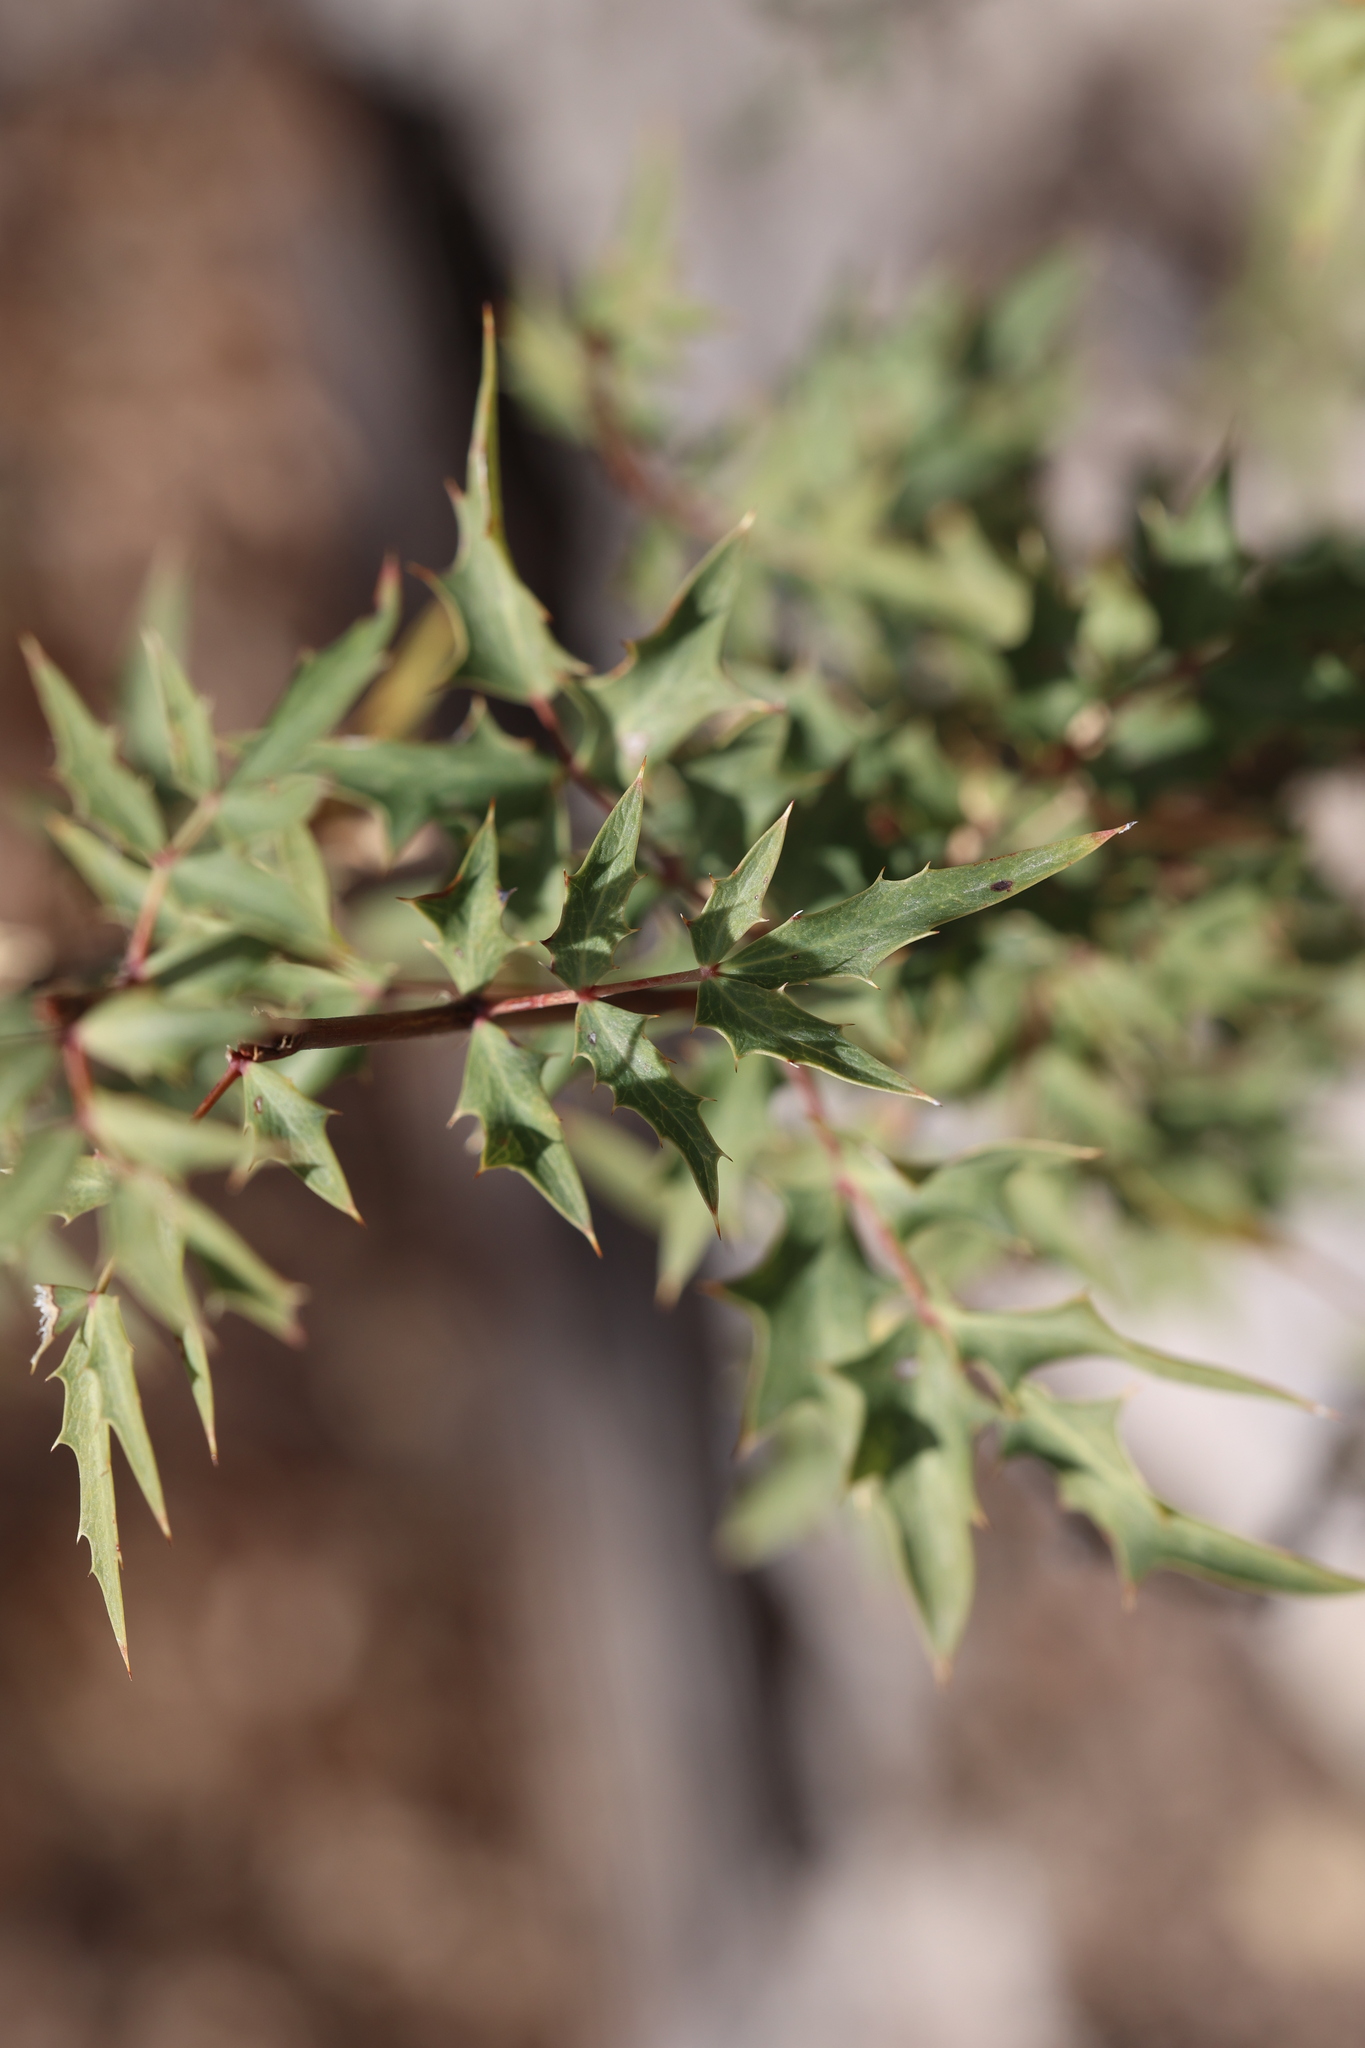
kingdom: Plantae
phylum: Tracheophyta
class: Magnoliopsida
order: Ranunculales
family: Berberidaceae
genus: Alloberberis
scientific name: Alloberberis haematocarpa
